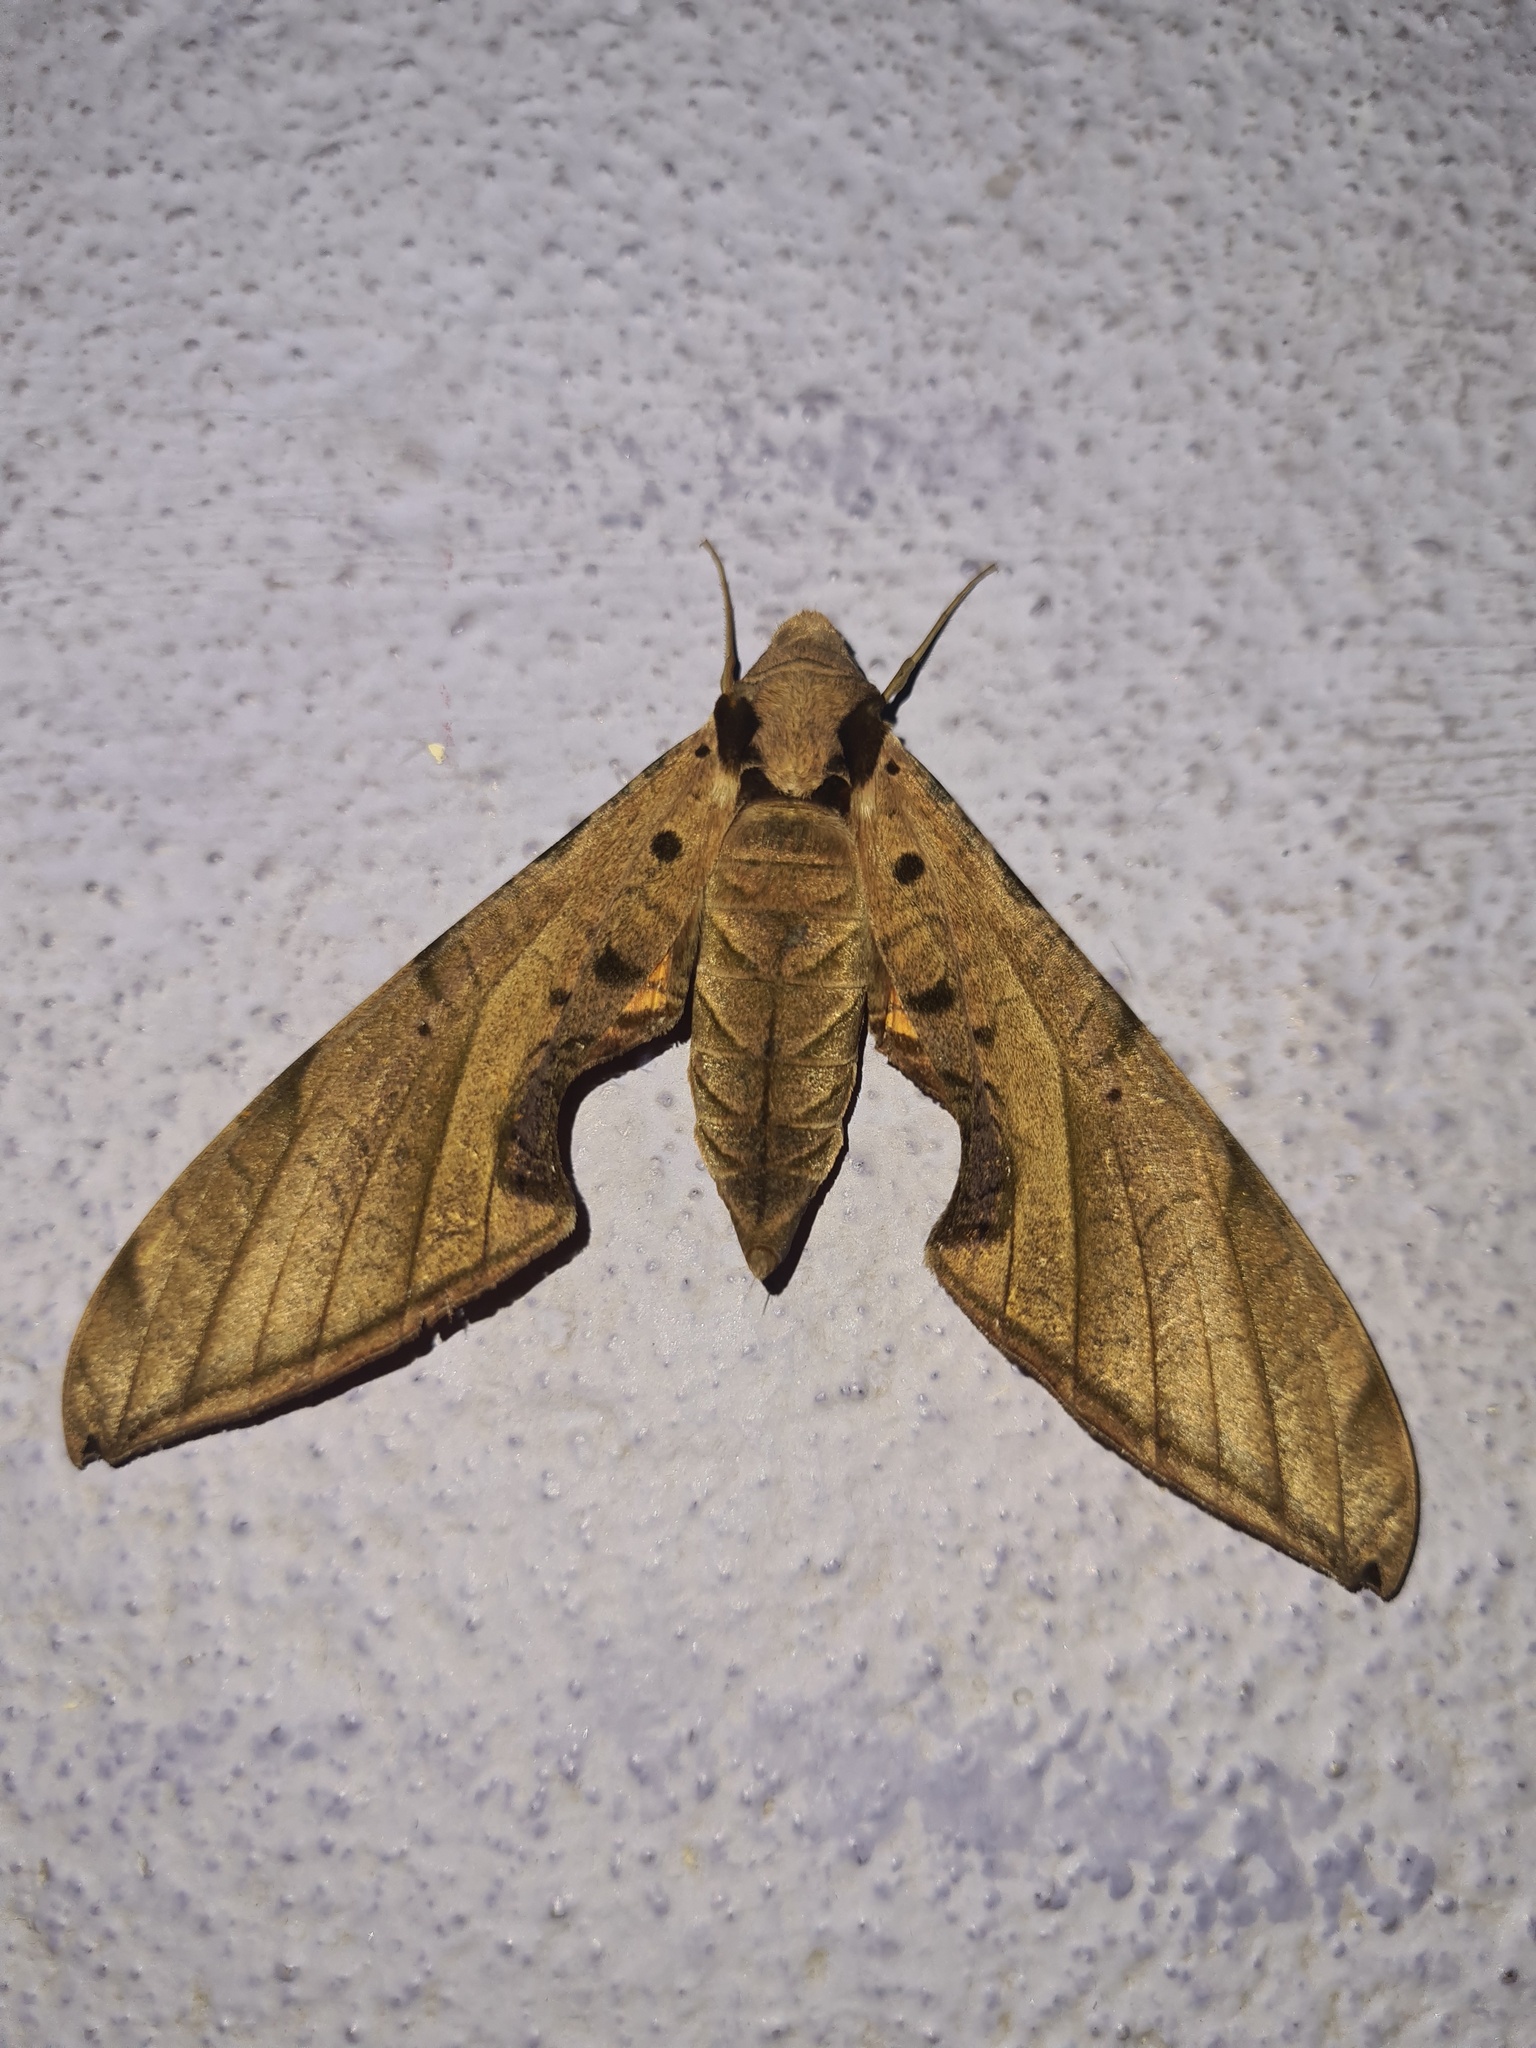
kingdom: Animalia
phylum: Arthropoda
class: Insecta
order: Lepidoptera
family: Sphingidae
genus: Protambulyx
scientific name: Protambulyx strigilis
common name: Streaked sphinx
